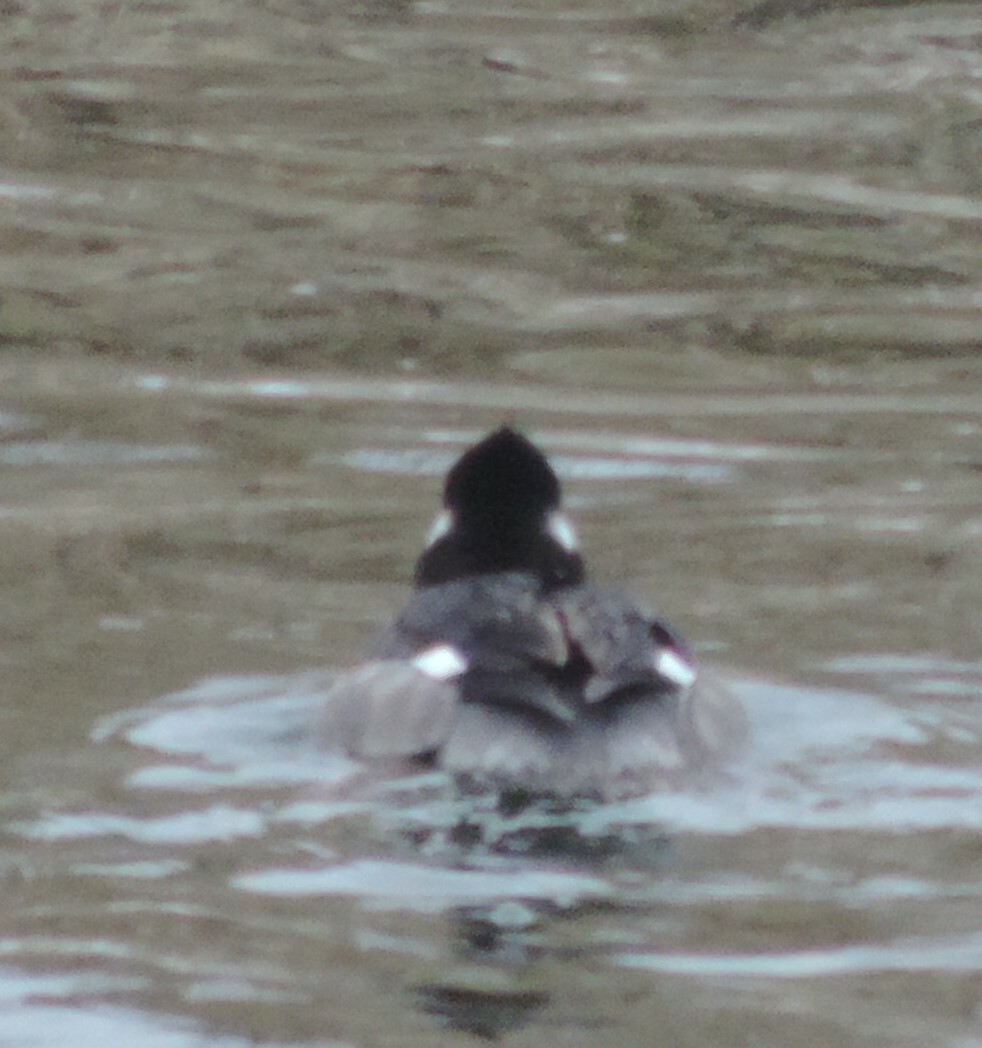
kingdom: Animalia
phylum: Chordata
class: Aves
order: Anseriformes
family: Anatidae
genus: Bucephala
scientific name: Bucephala albeola
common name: Bufflehead
